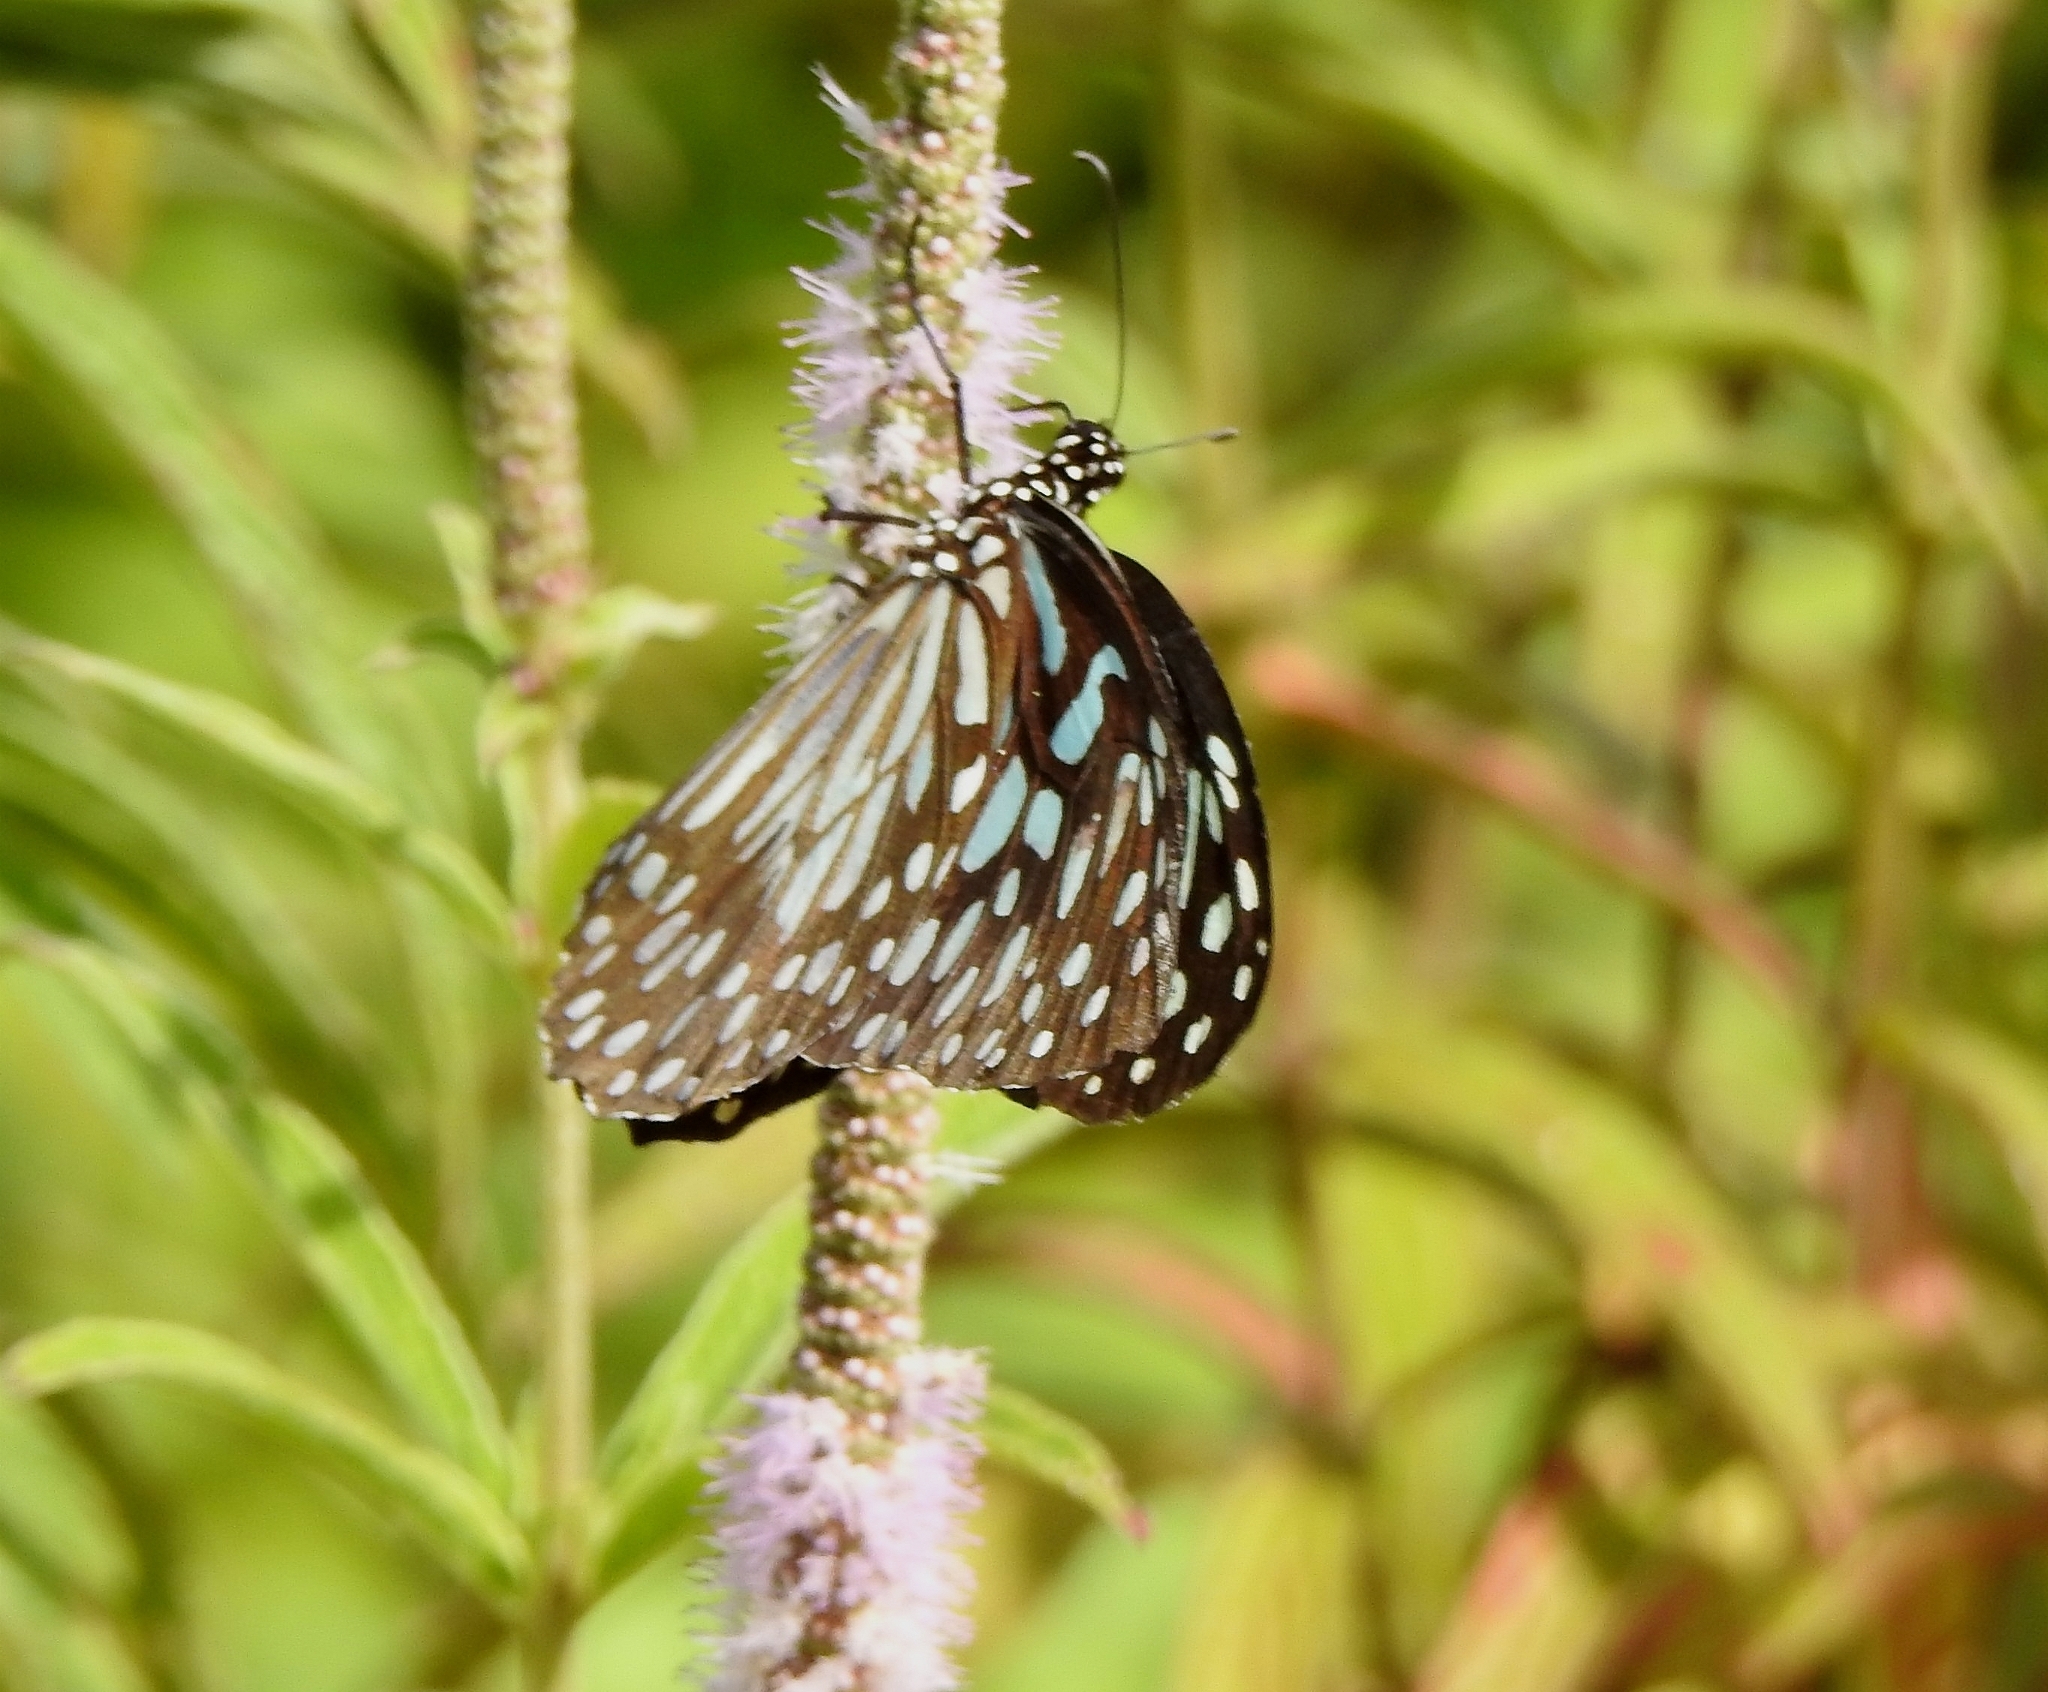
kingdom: Animalia
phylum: Arthropoda
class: Insecta
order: Lepidoptera
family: Nymphalidae
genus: Tirumala
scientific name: Tirumala septentrionis
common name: Dark blue tiger butterfly
